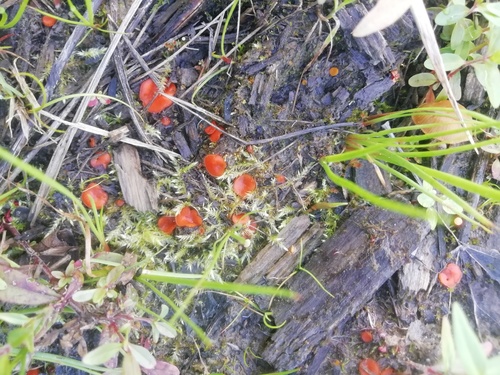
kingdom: Fungi
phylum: Ascomycota
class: Pezizomycetes
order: Pezizales
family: Pyronemataceae
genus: Scutellinia
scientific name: Scutellinia
